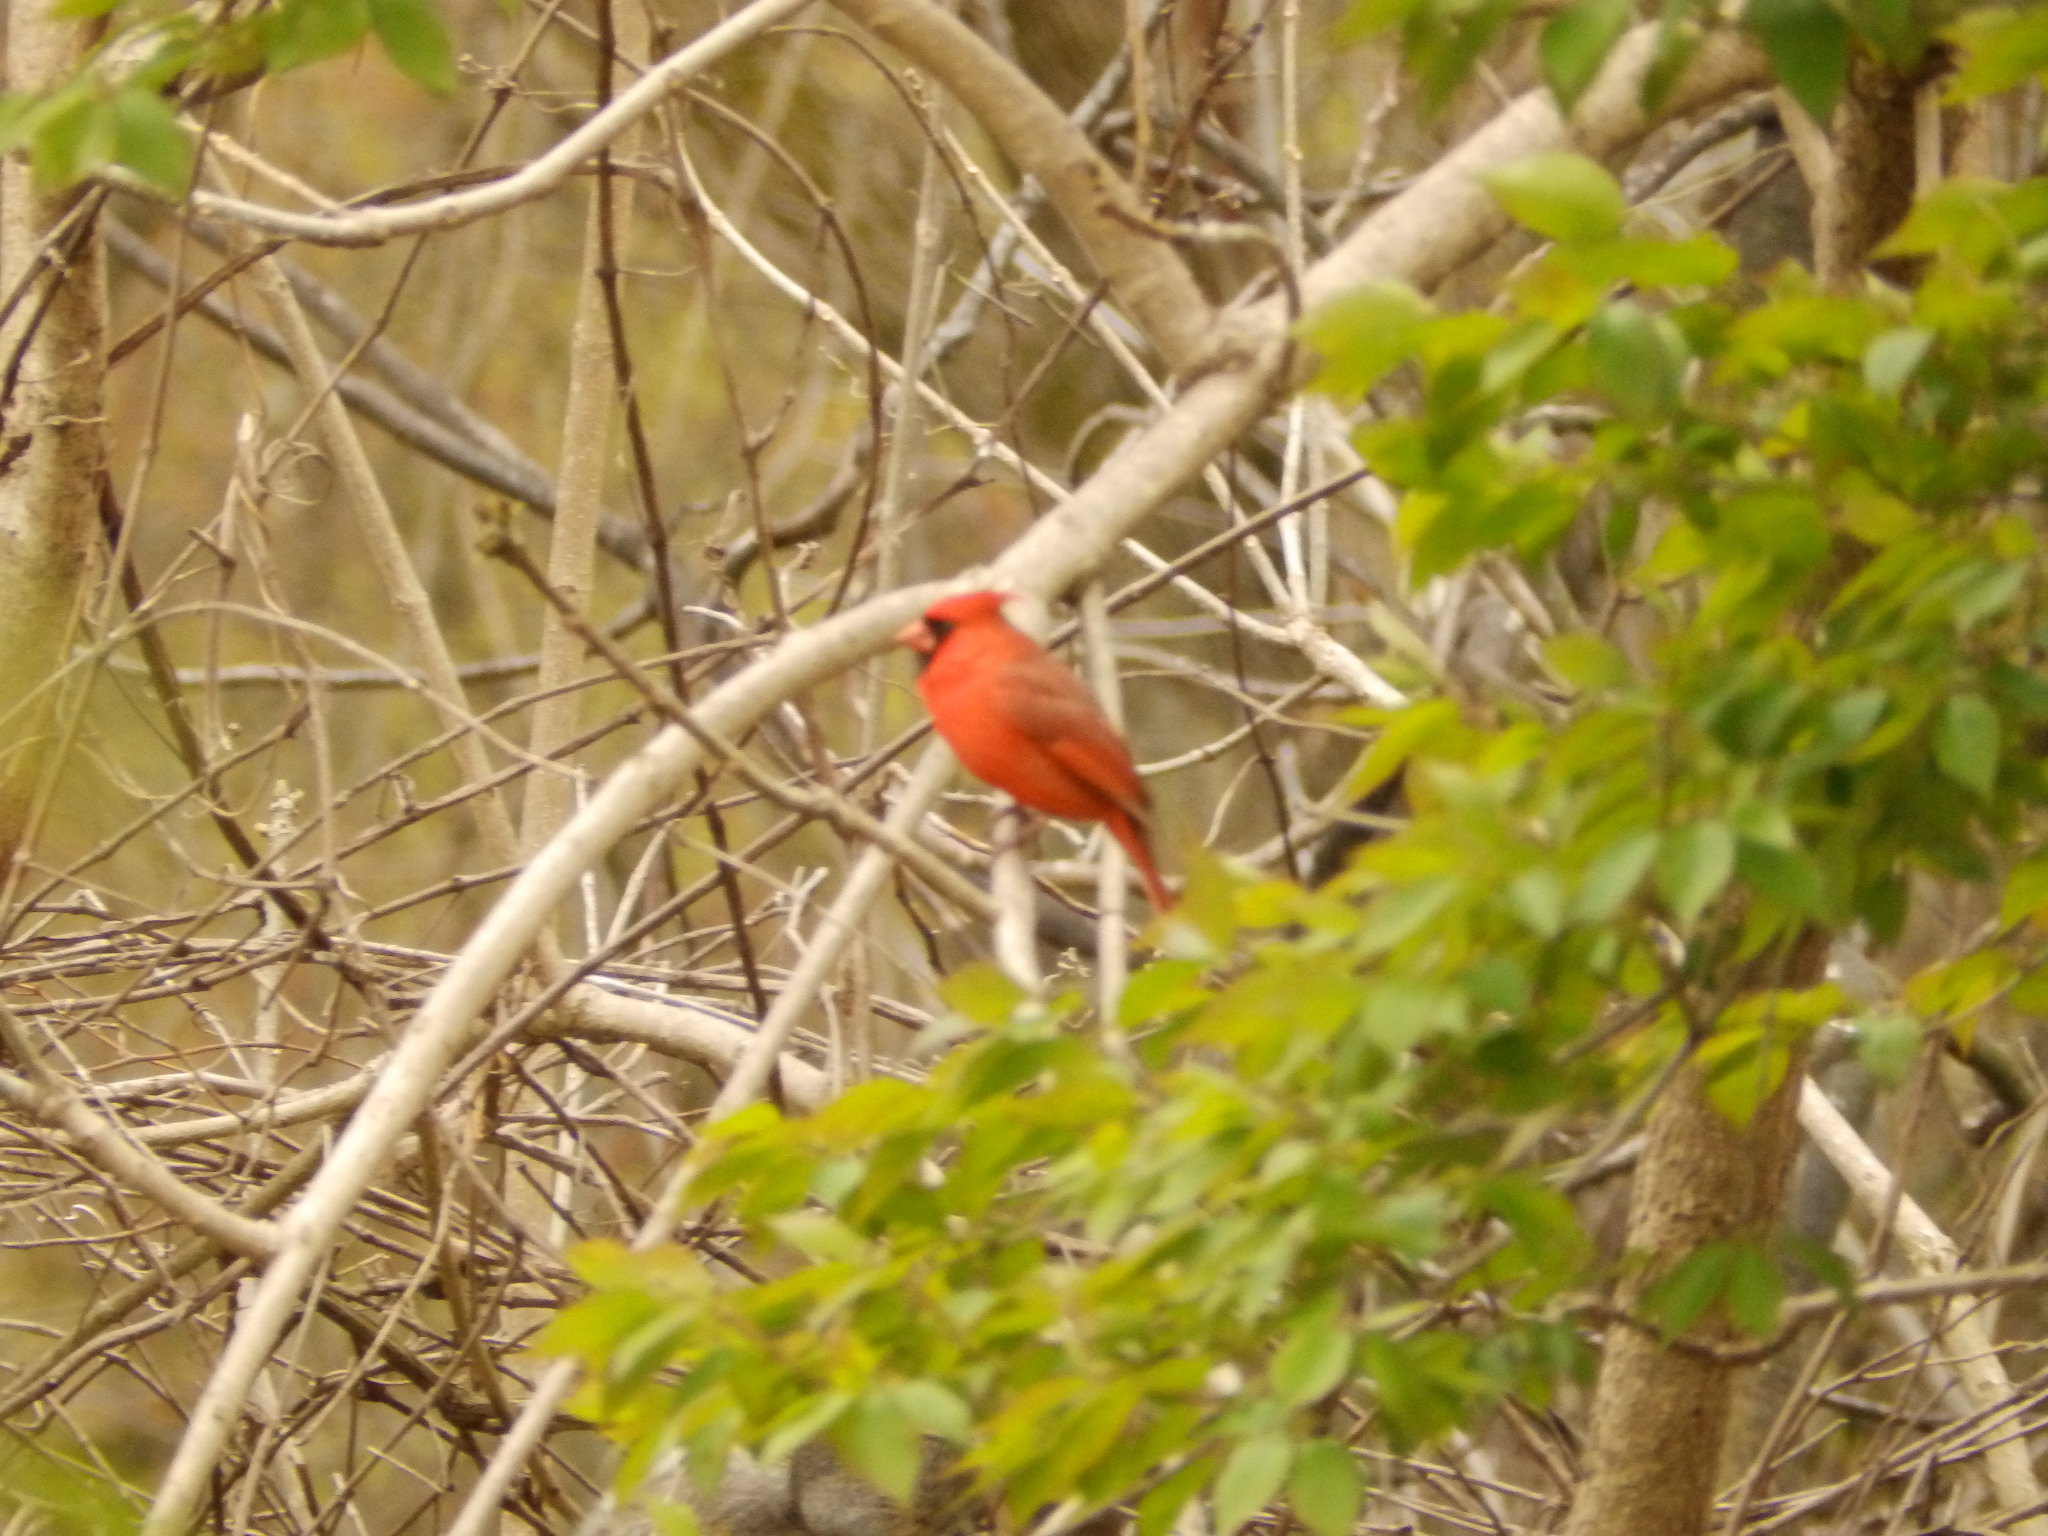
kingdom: Animalia
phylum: Chordata
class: Aves
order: Passeriformes
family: Cardinalidae
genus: Cardinalis
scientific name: Cardinalis cardinalis
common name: Northern cardinal
